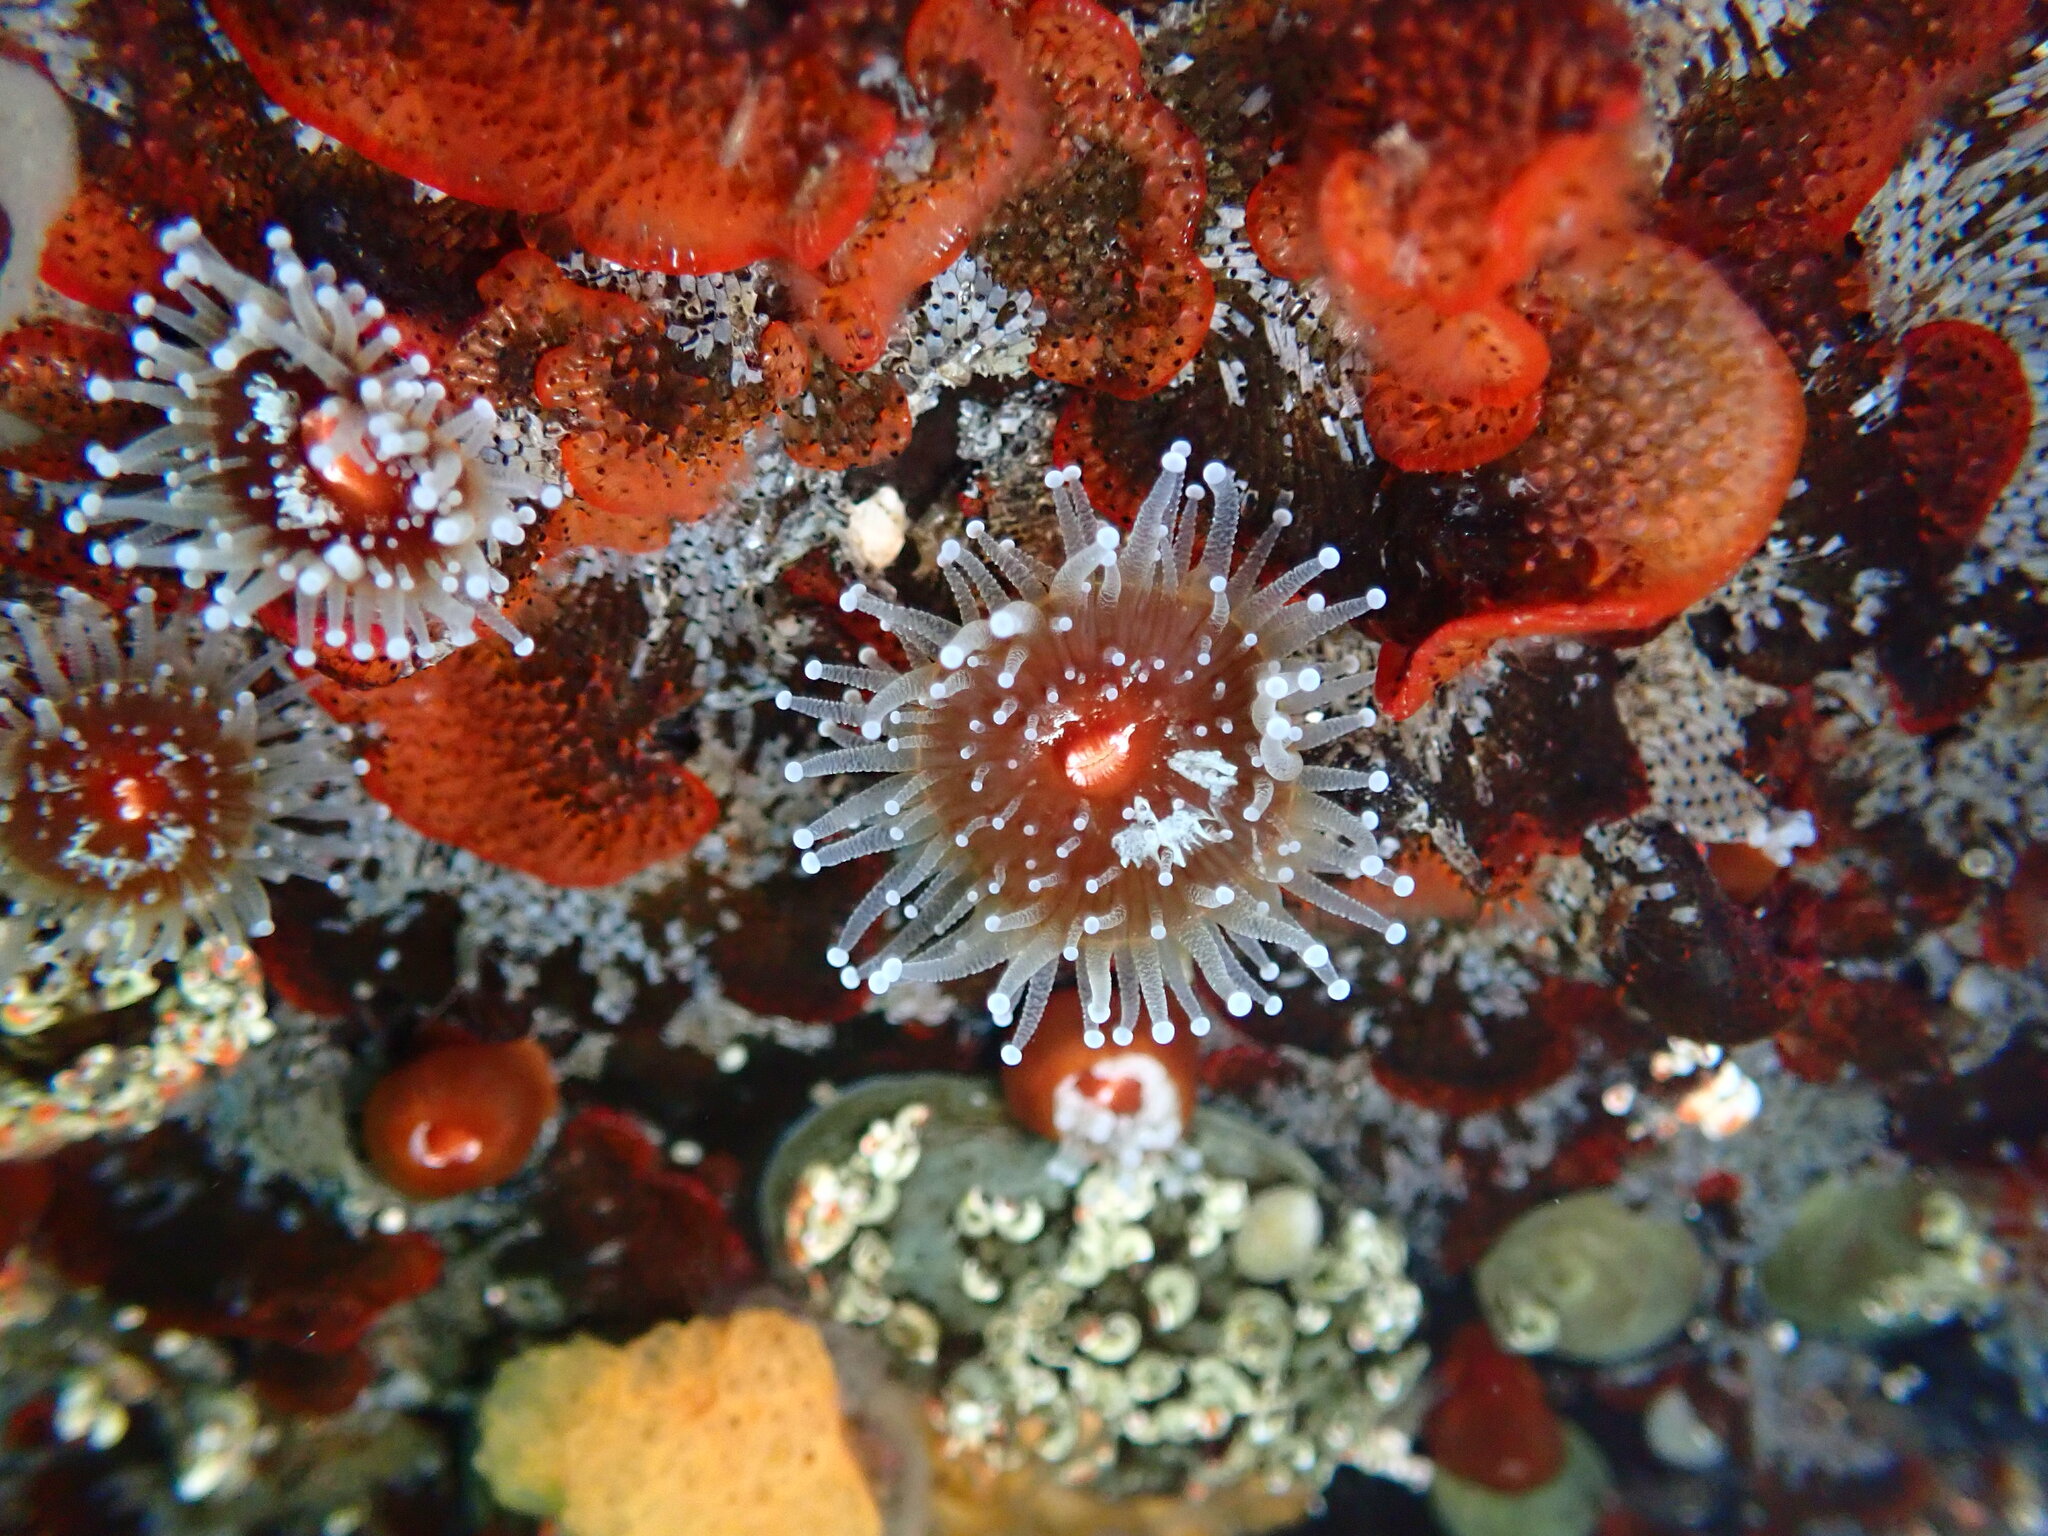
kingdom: Animalia
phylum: Cnidaria
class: Anthozoa
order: Corallimorpharia
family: Corallimorphidae
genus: Corynactis
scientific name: Corynactis californica
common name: Strawberry corallimorpharian
